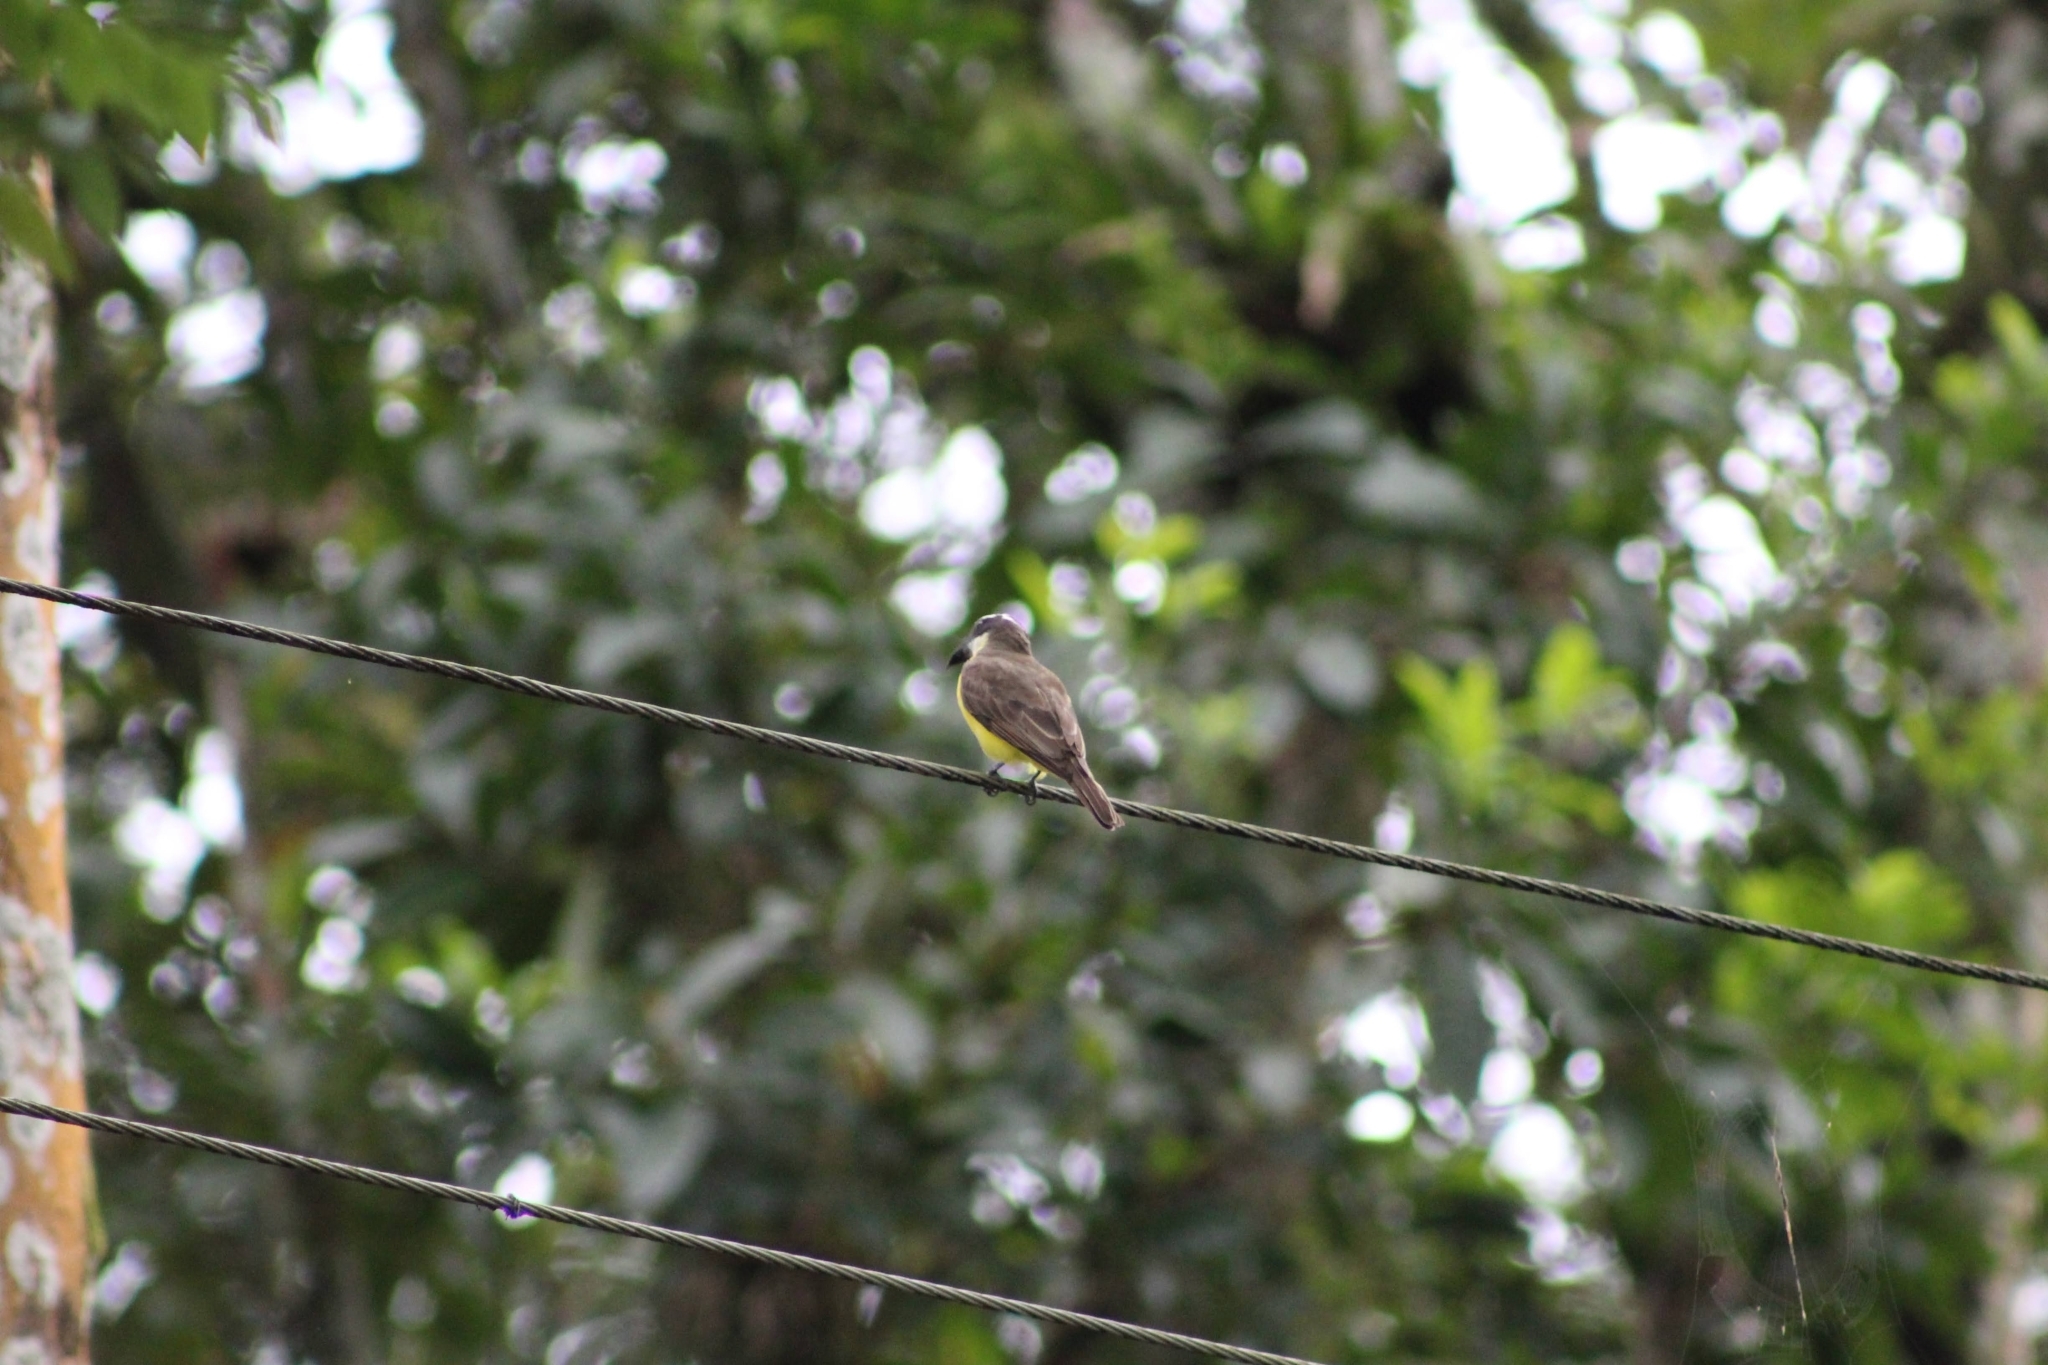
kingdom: Animalia
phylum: Chordata
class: Aves
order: Passeriformes
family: Tyrannidae
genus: Megarynchus
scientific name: Megarynchus pitangua
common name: Boat-billed flycatcher
